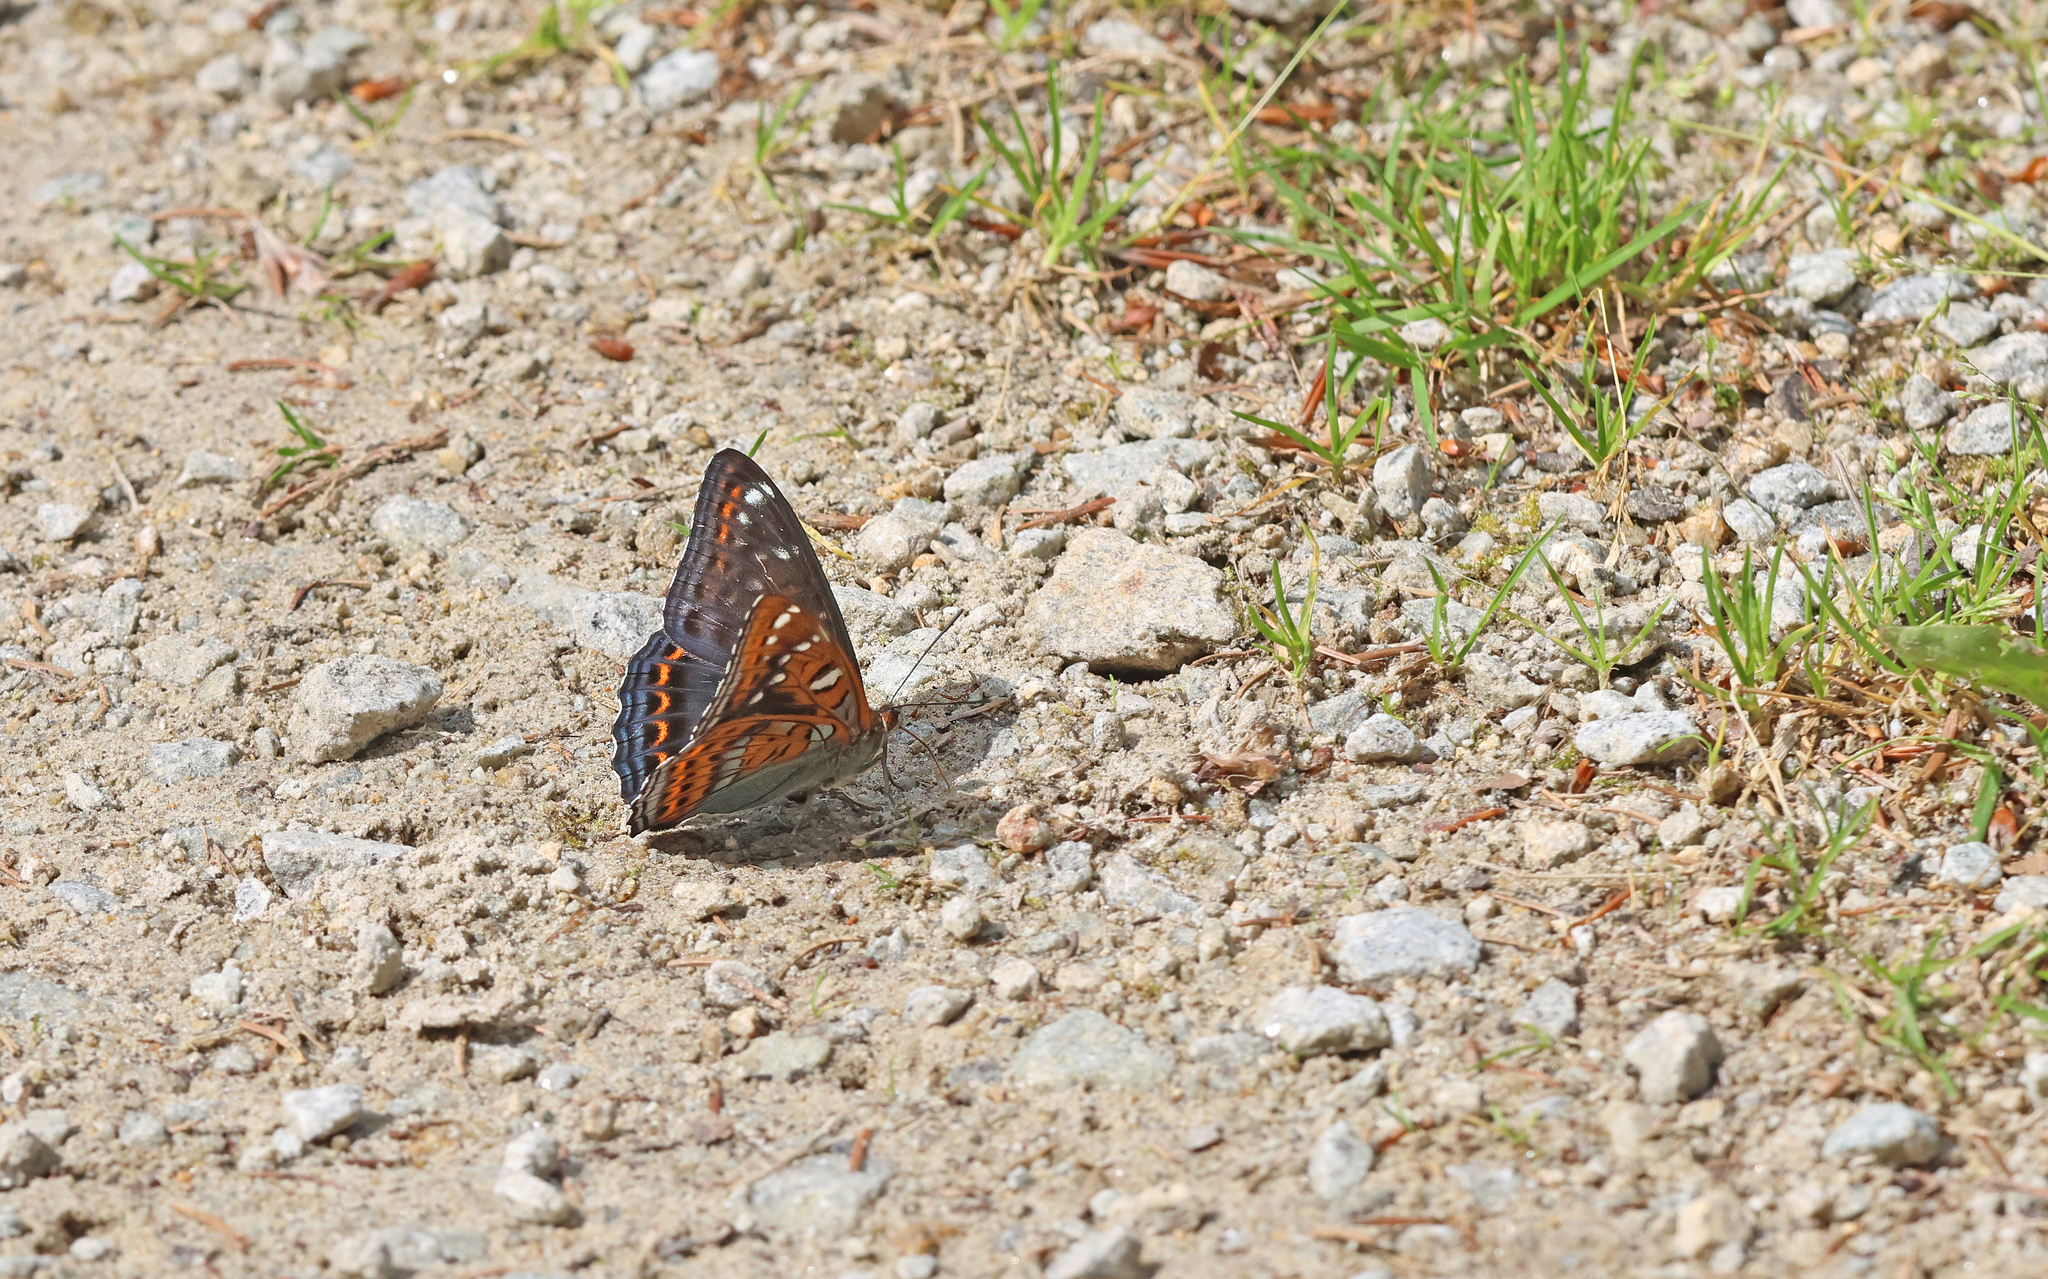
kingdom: Animalia
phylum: Arthropoda
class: Insecta
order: Lepidoptera
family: Nymphalidae
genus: Limenitis
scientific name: Limenitis populi
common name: Poplar admiral
